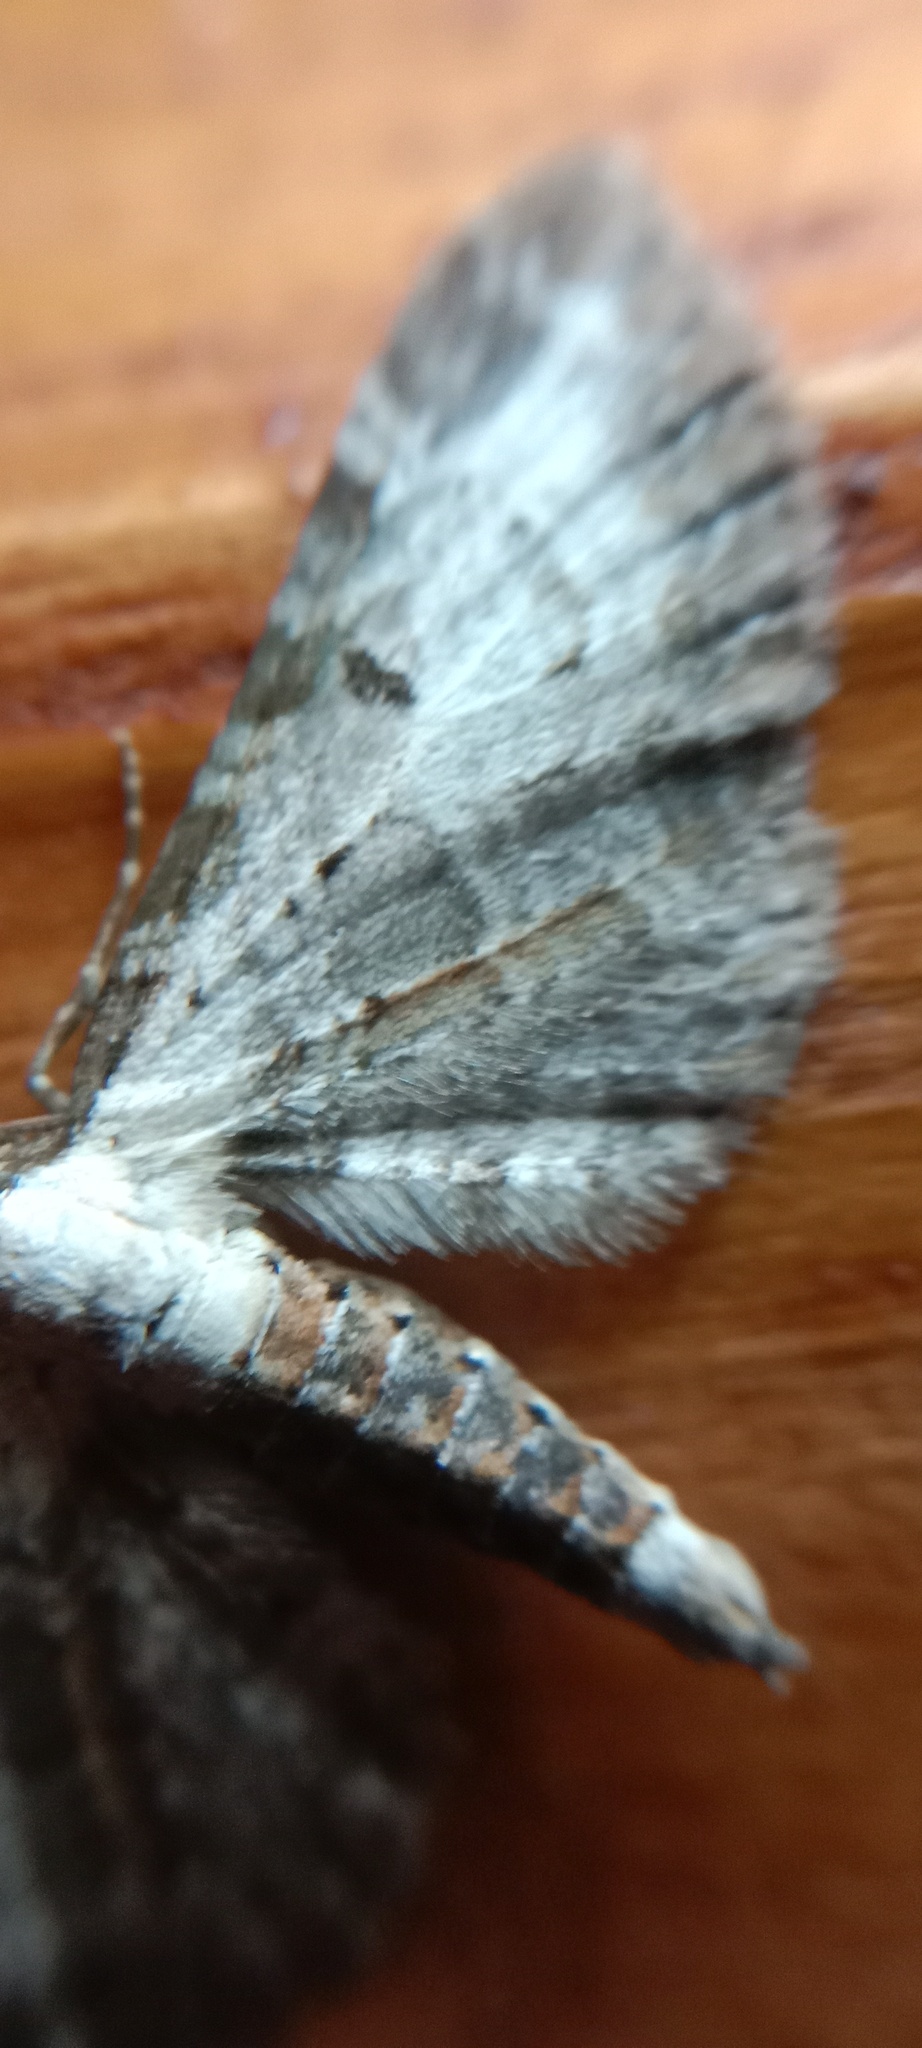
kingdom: Animalia
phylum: Arthropoda
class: Insecta
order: Lepidoptera
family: Geometridae
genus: Eupithecia
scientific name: Eupithecia succenturiata
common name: Bordered pug
